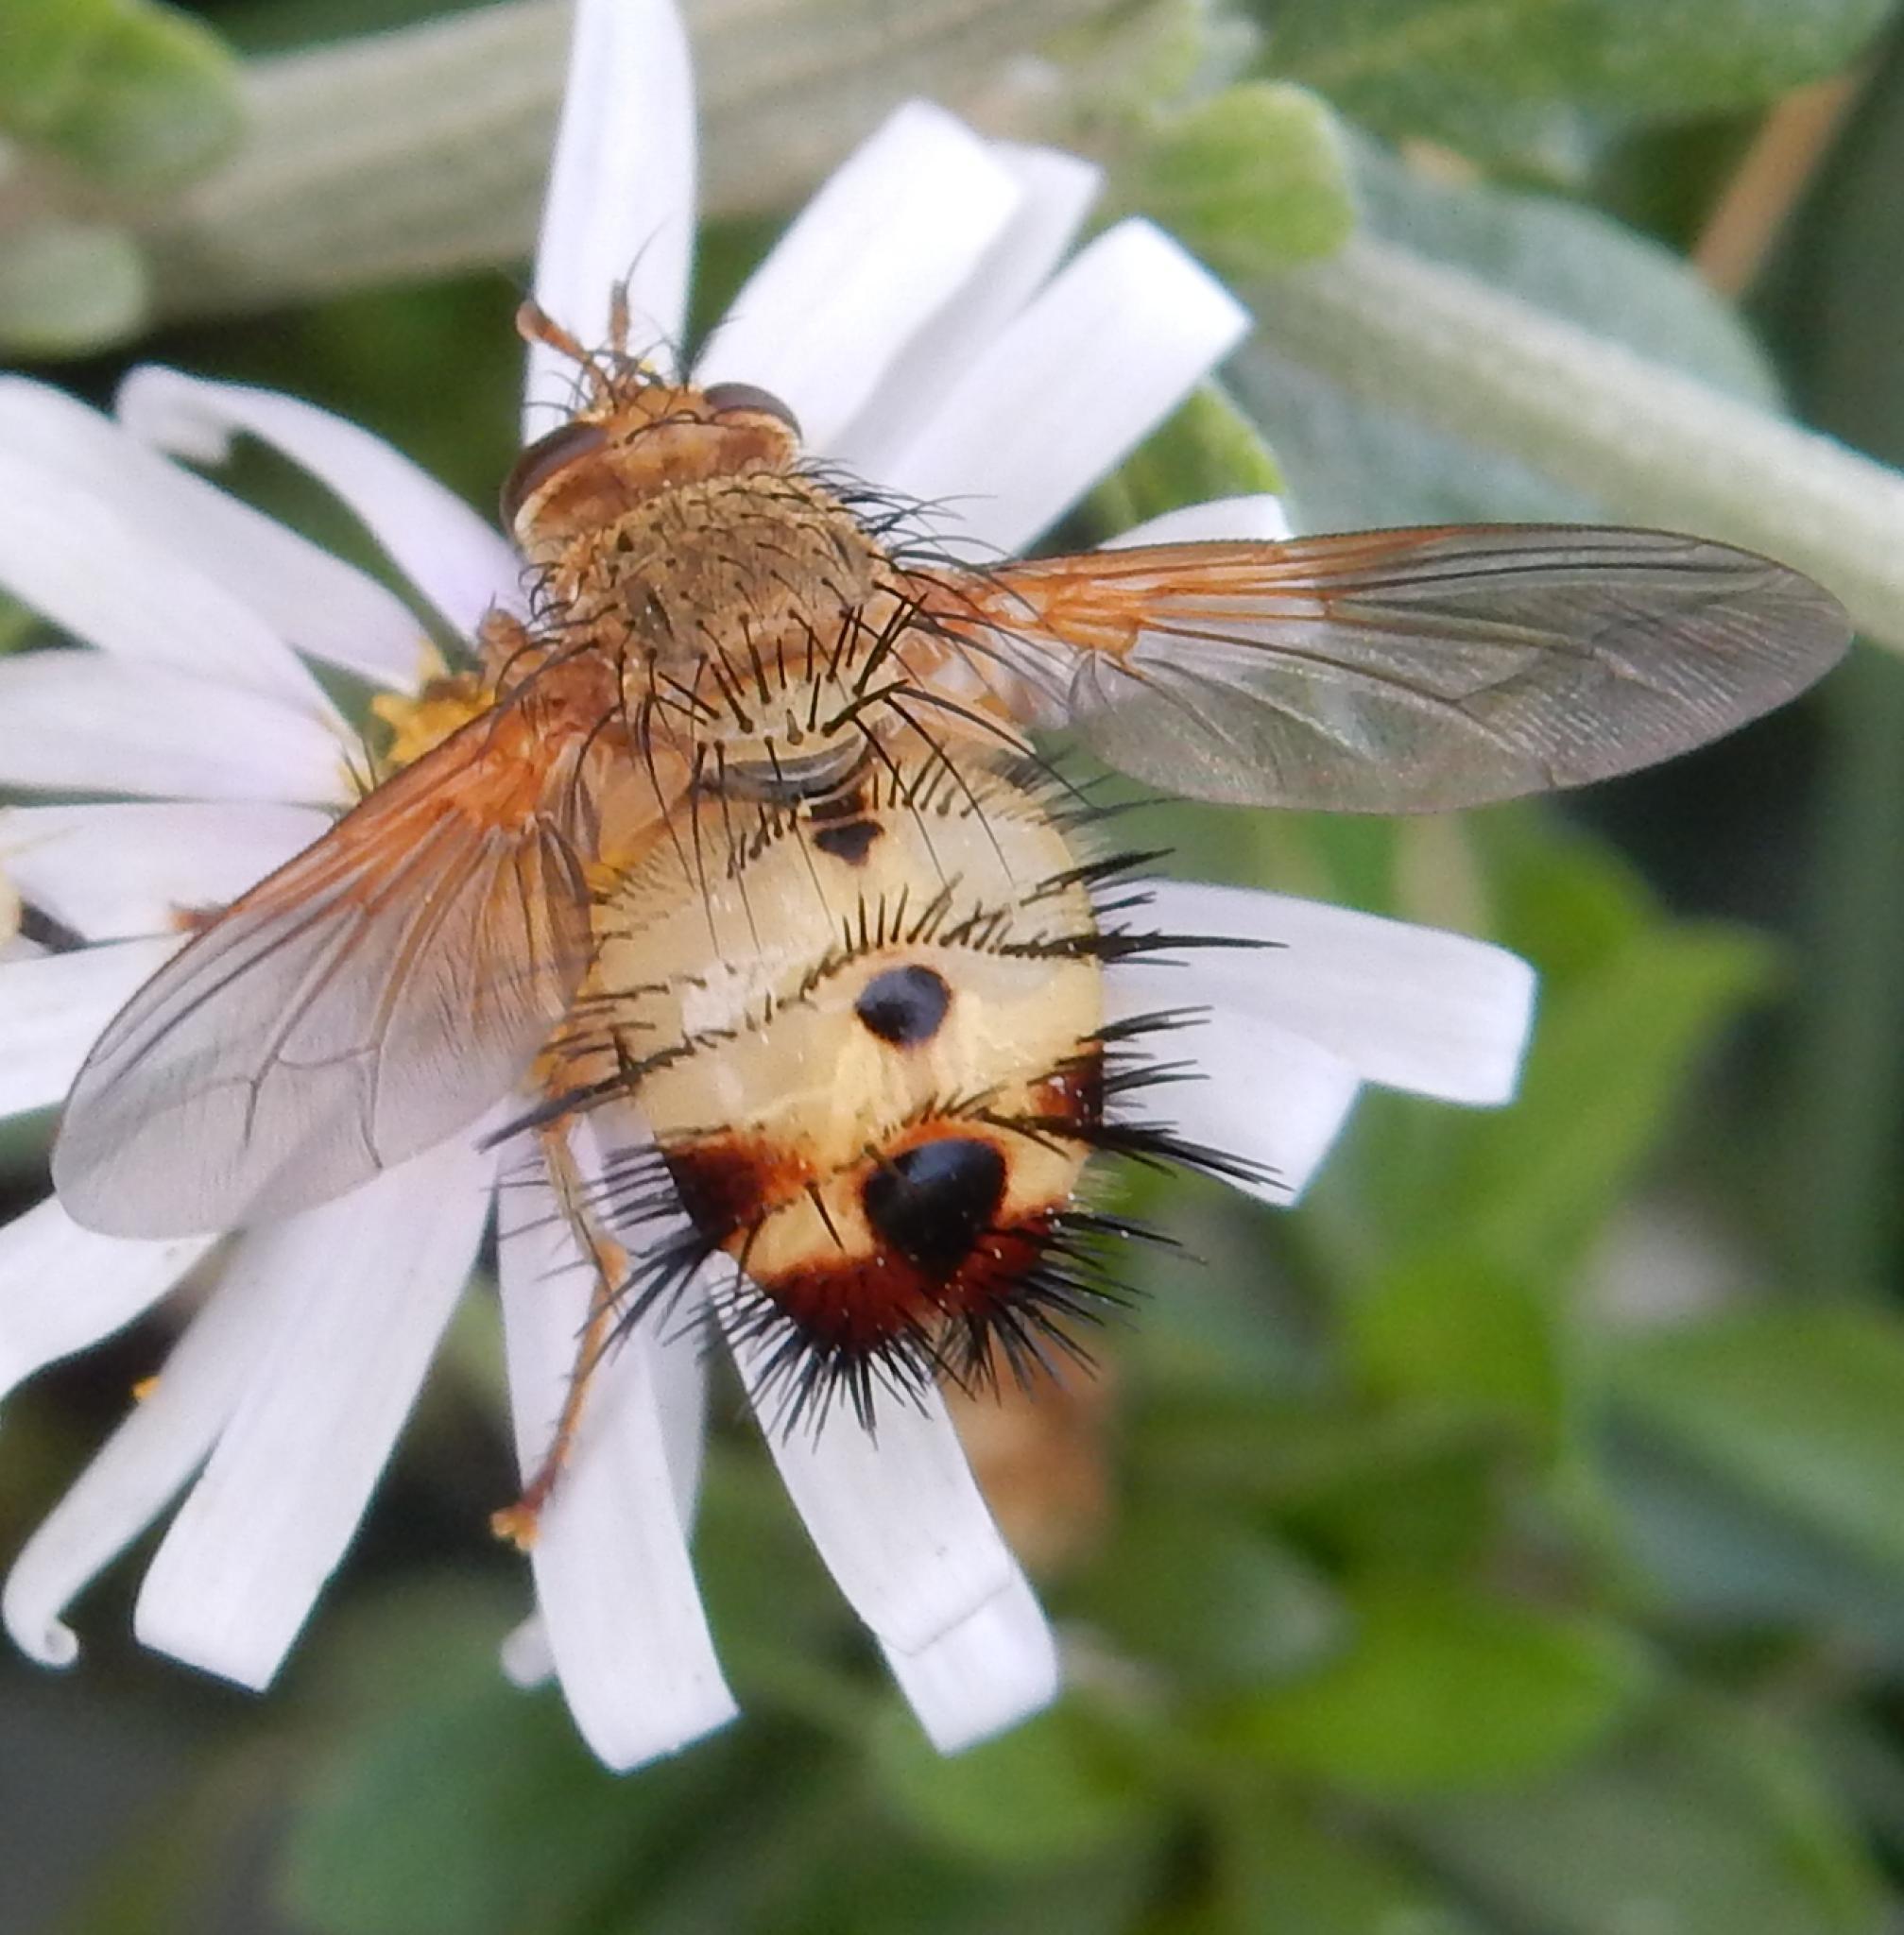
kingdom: Animalia
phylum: Arthropoda
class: Insecta
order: Diptera
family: Tachinidae
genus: Dejeania
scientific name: Dejeania bombylans
